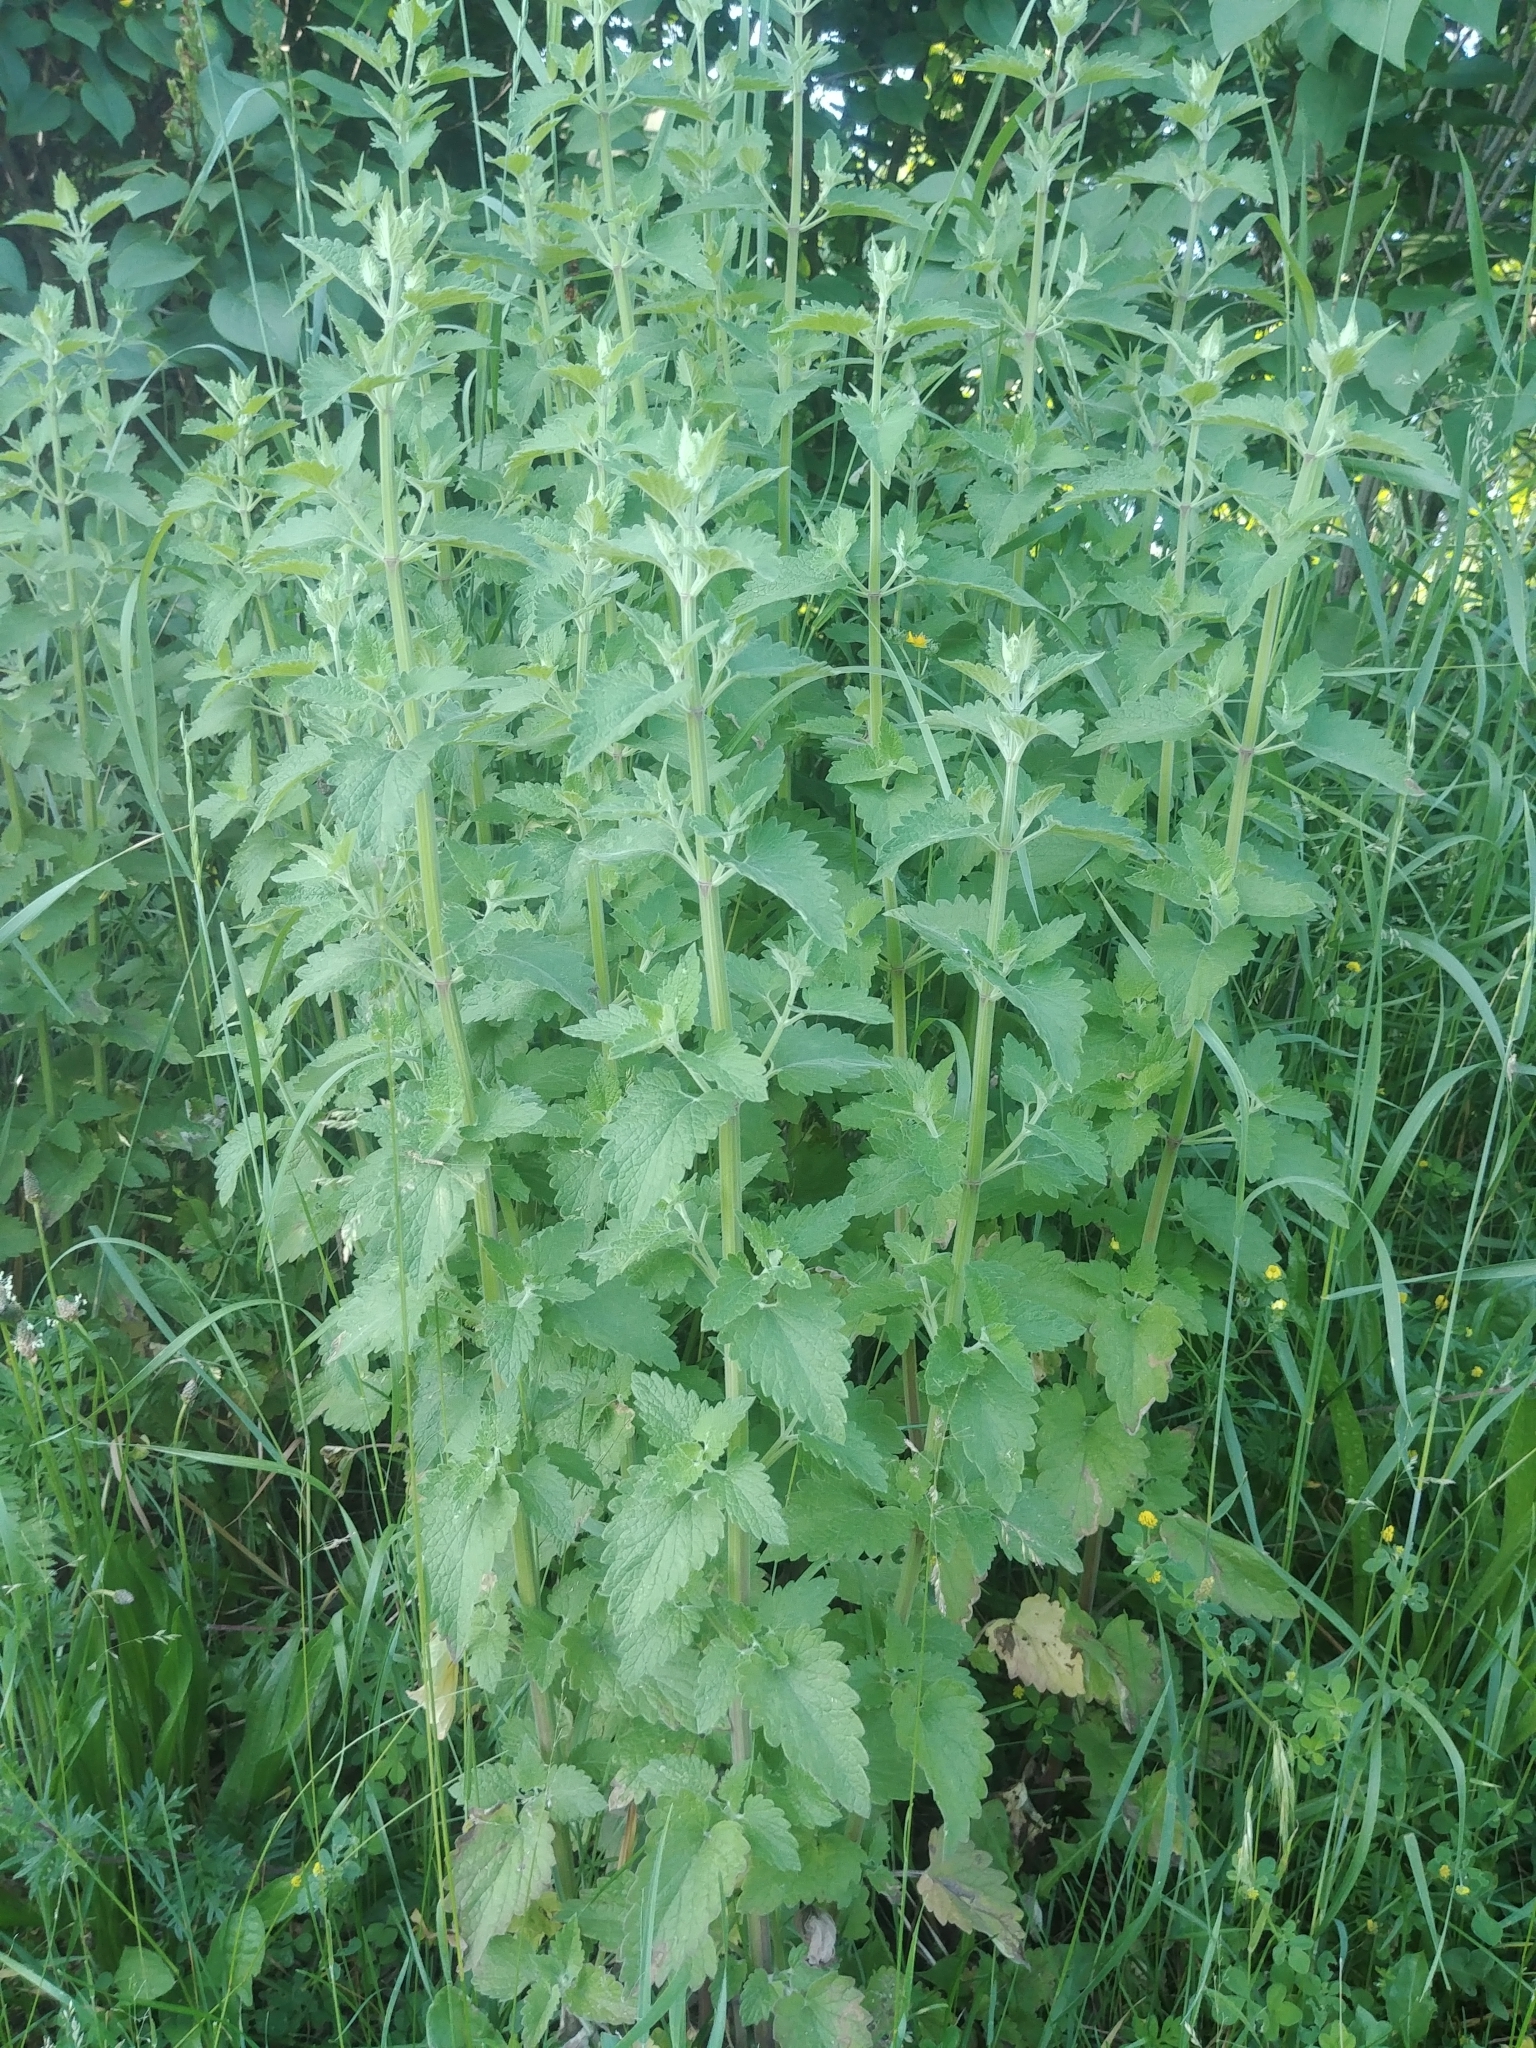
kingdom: Plantae
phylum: Tracheophyta
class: Magnoliopsida
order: Lamiales
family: Lamiaceae
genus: Nepeta
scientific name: Nepeta cataria
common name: Catnip
